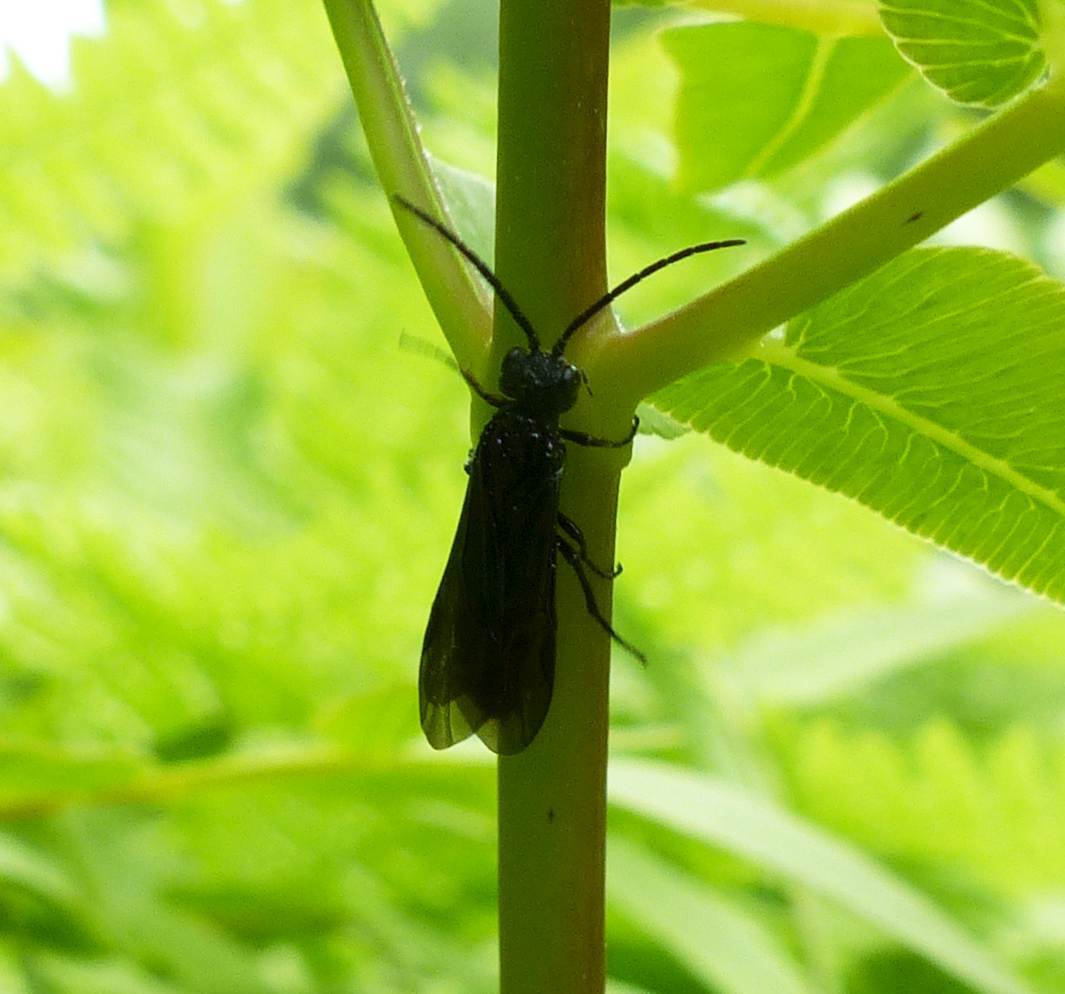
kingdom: Animalia
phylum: Arthropoda
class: Insecta
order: Hymenoptera
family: Tenthredinidae
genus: Strongylogaster
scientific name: Strongylogaster tacita
